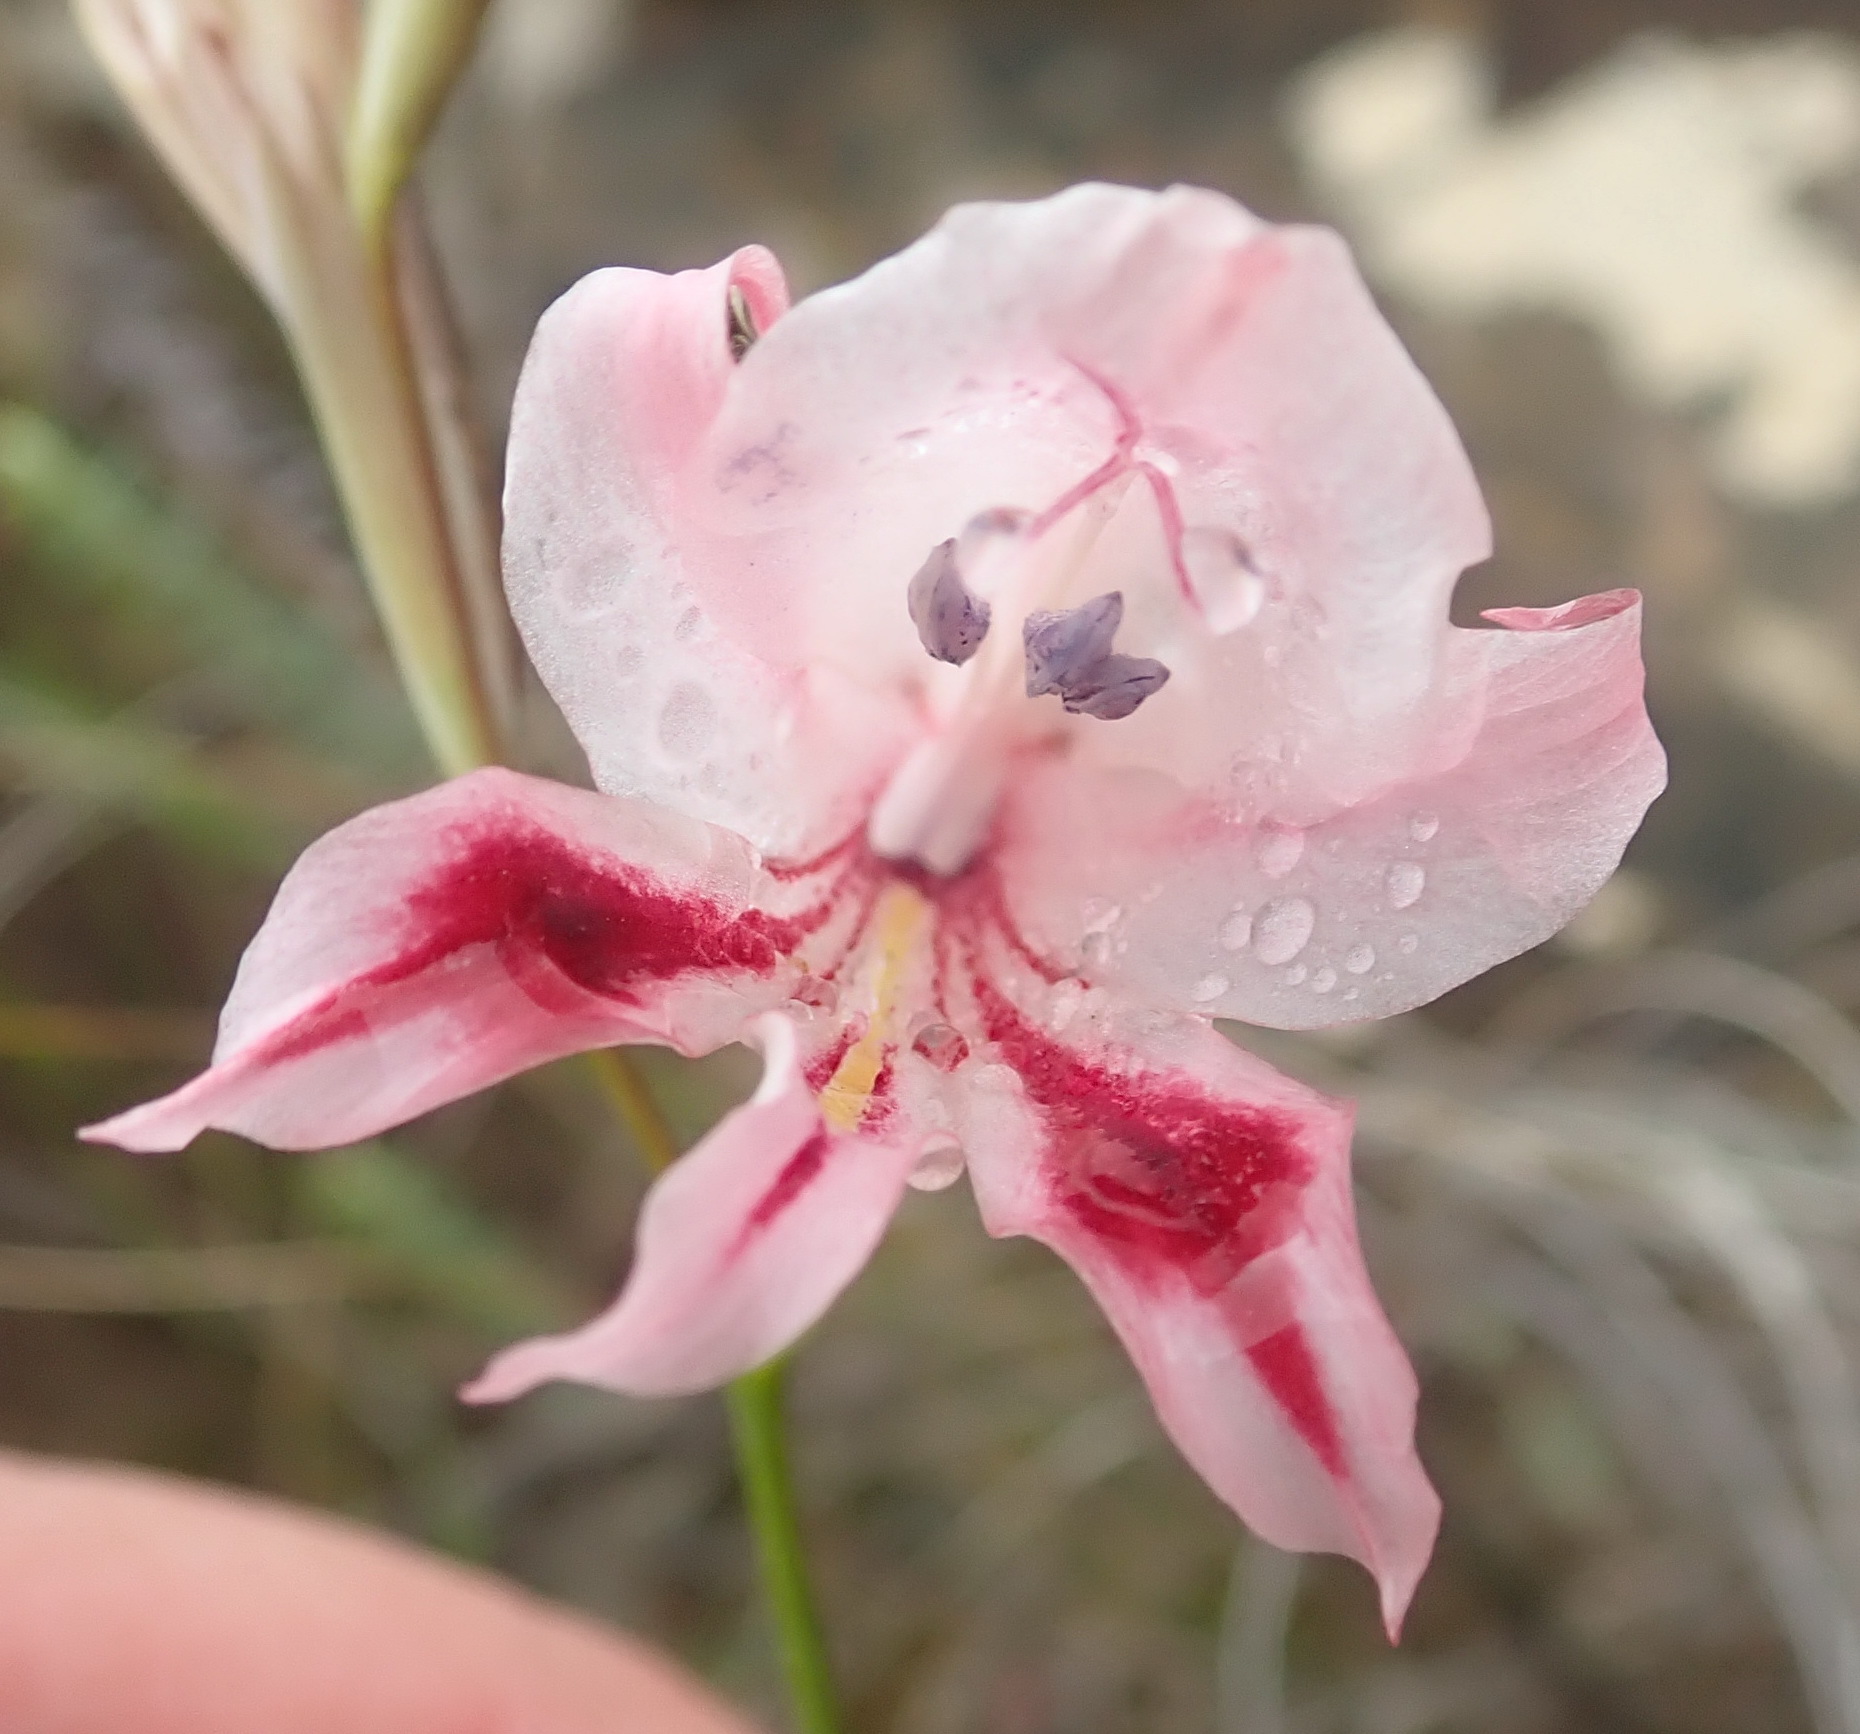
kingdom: Plantae
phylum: Tracheophyta
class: Liliopsida
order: Asparagales
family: Iridaceae
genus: Gladiolus
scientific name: Gladiolus nigromontanus
